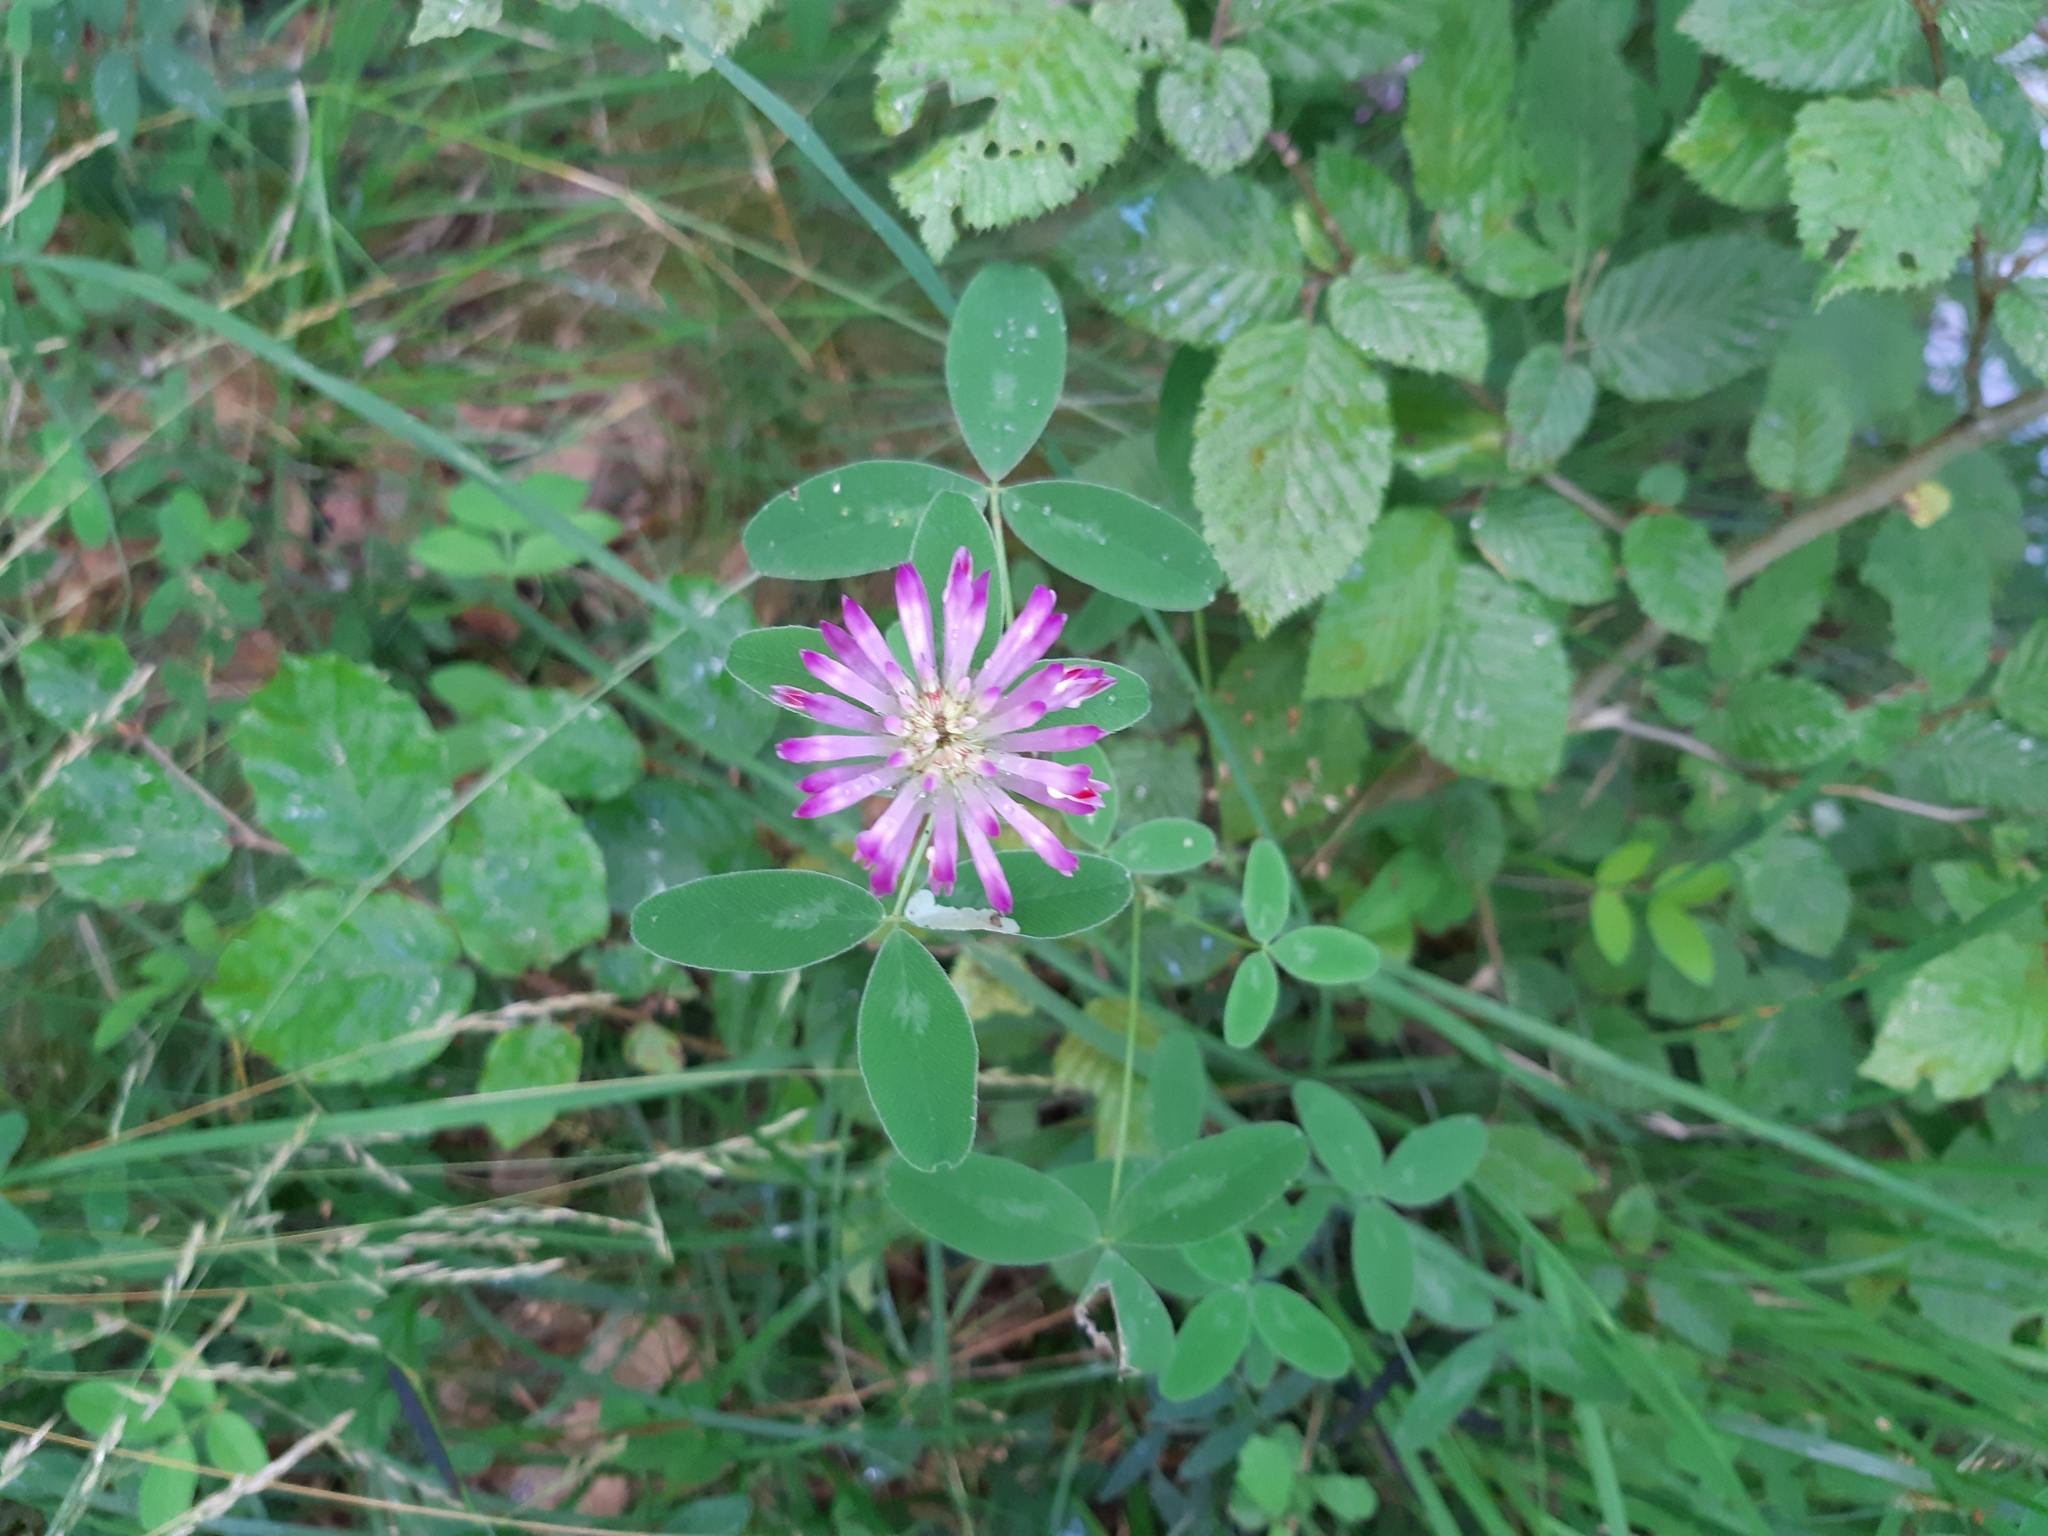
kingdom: Plantae
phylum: Tracheophyta
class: Magnoliopsida
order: Fabales
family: Fabaceae
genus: Trifolium
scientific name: Trifolium medium
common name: Zigzag clover
